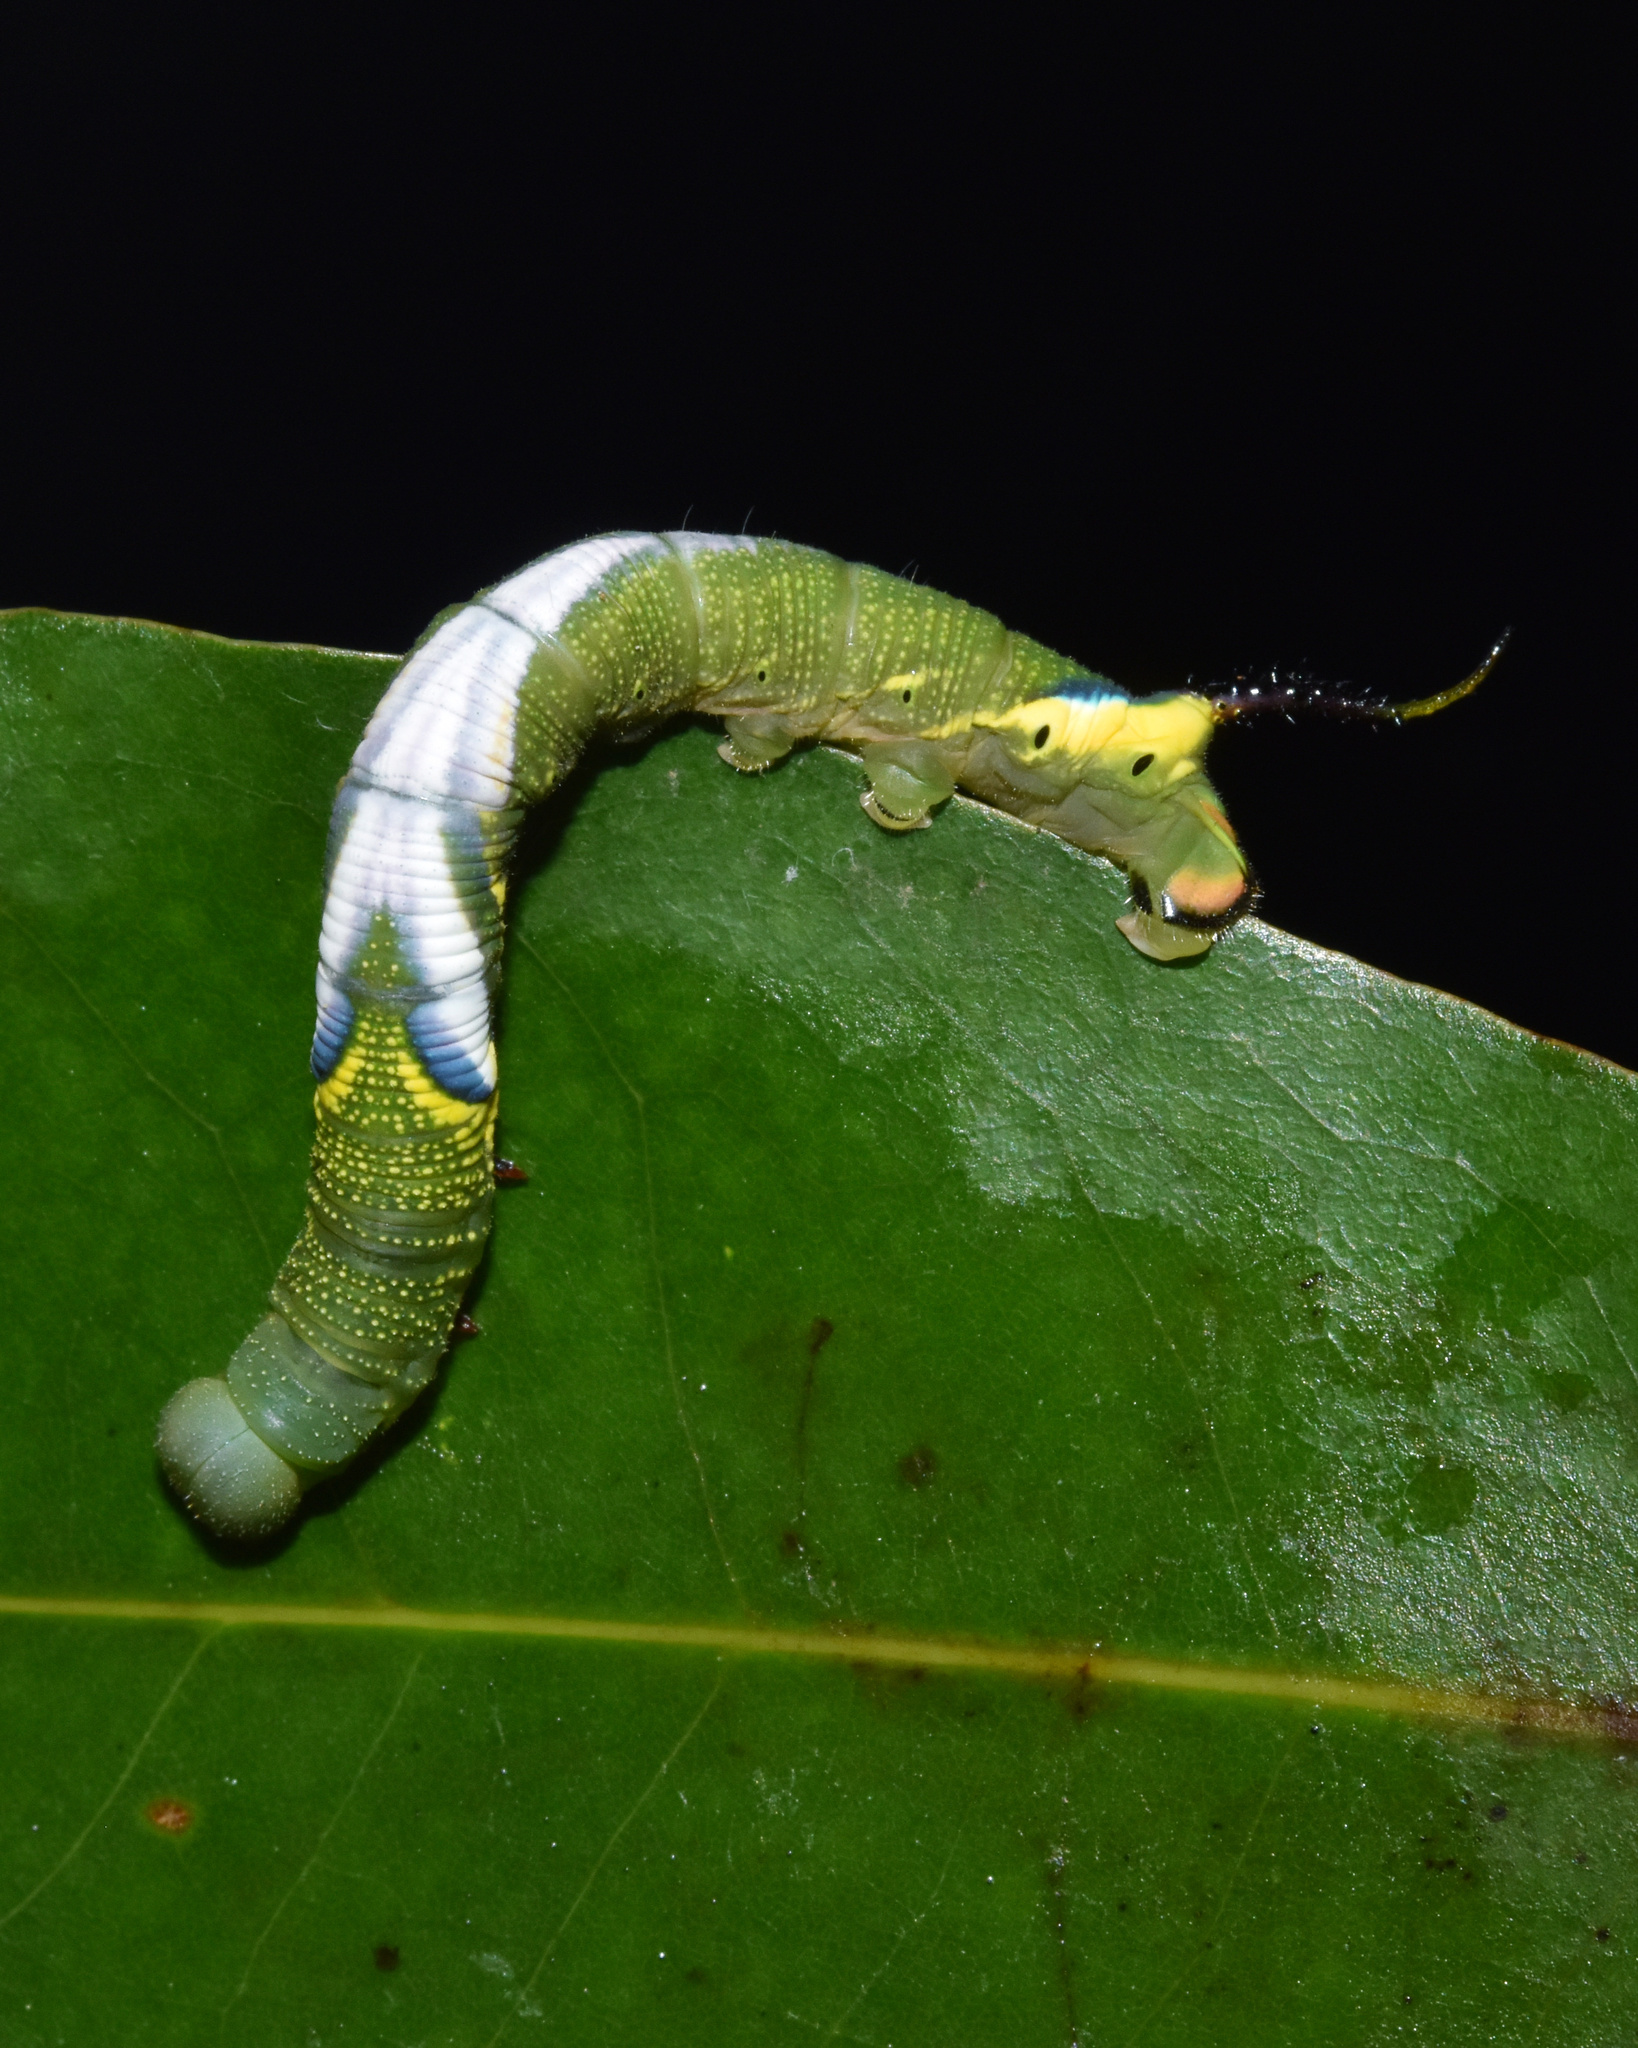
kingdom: Animalia
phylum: Arthropoda
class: Insecta
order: Lepidoptera
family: Sphingidae
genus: Xanthopan
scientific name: Xanthopan morganii
